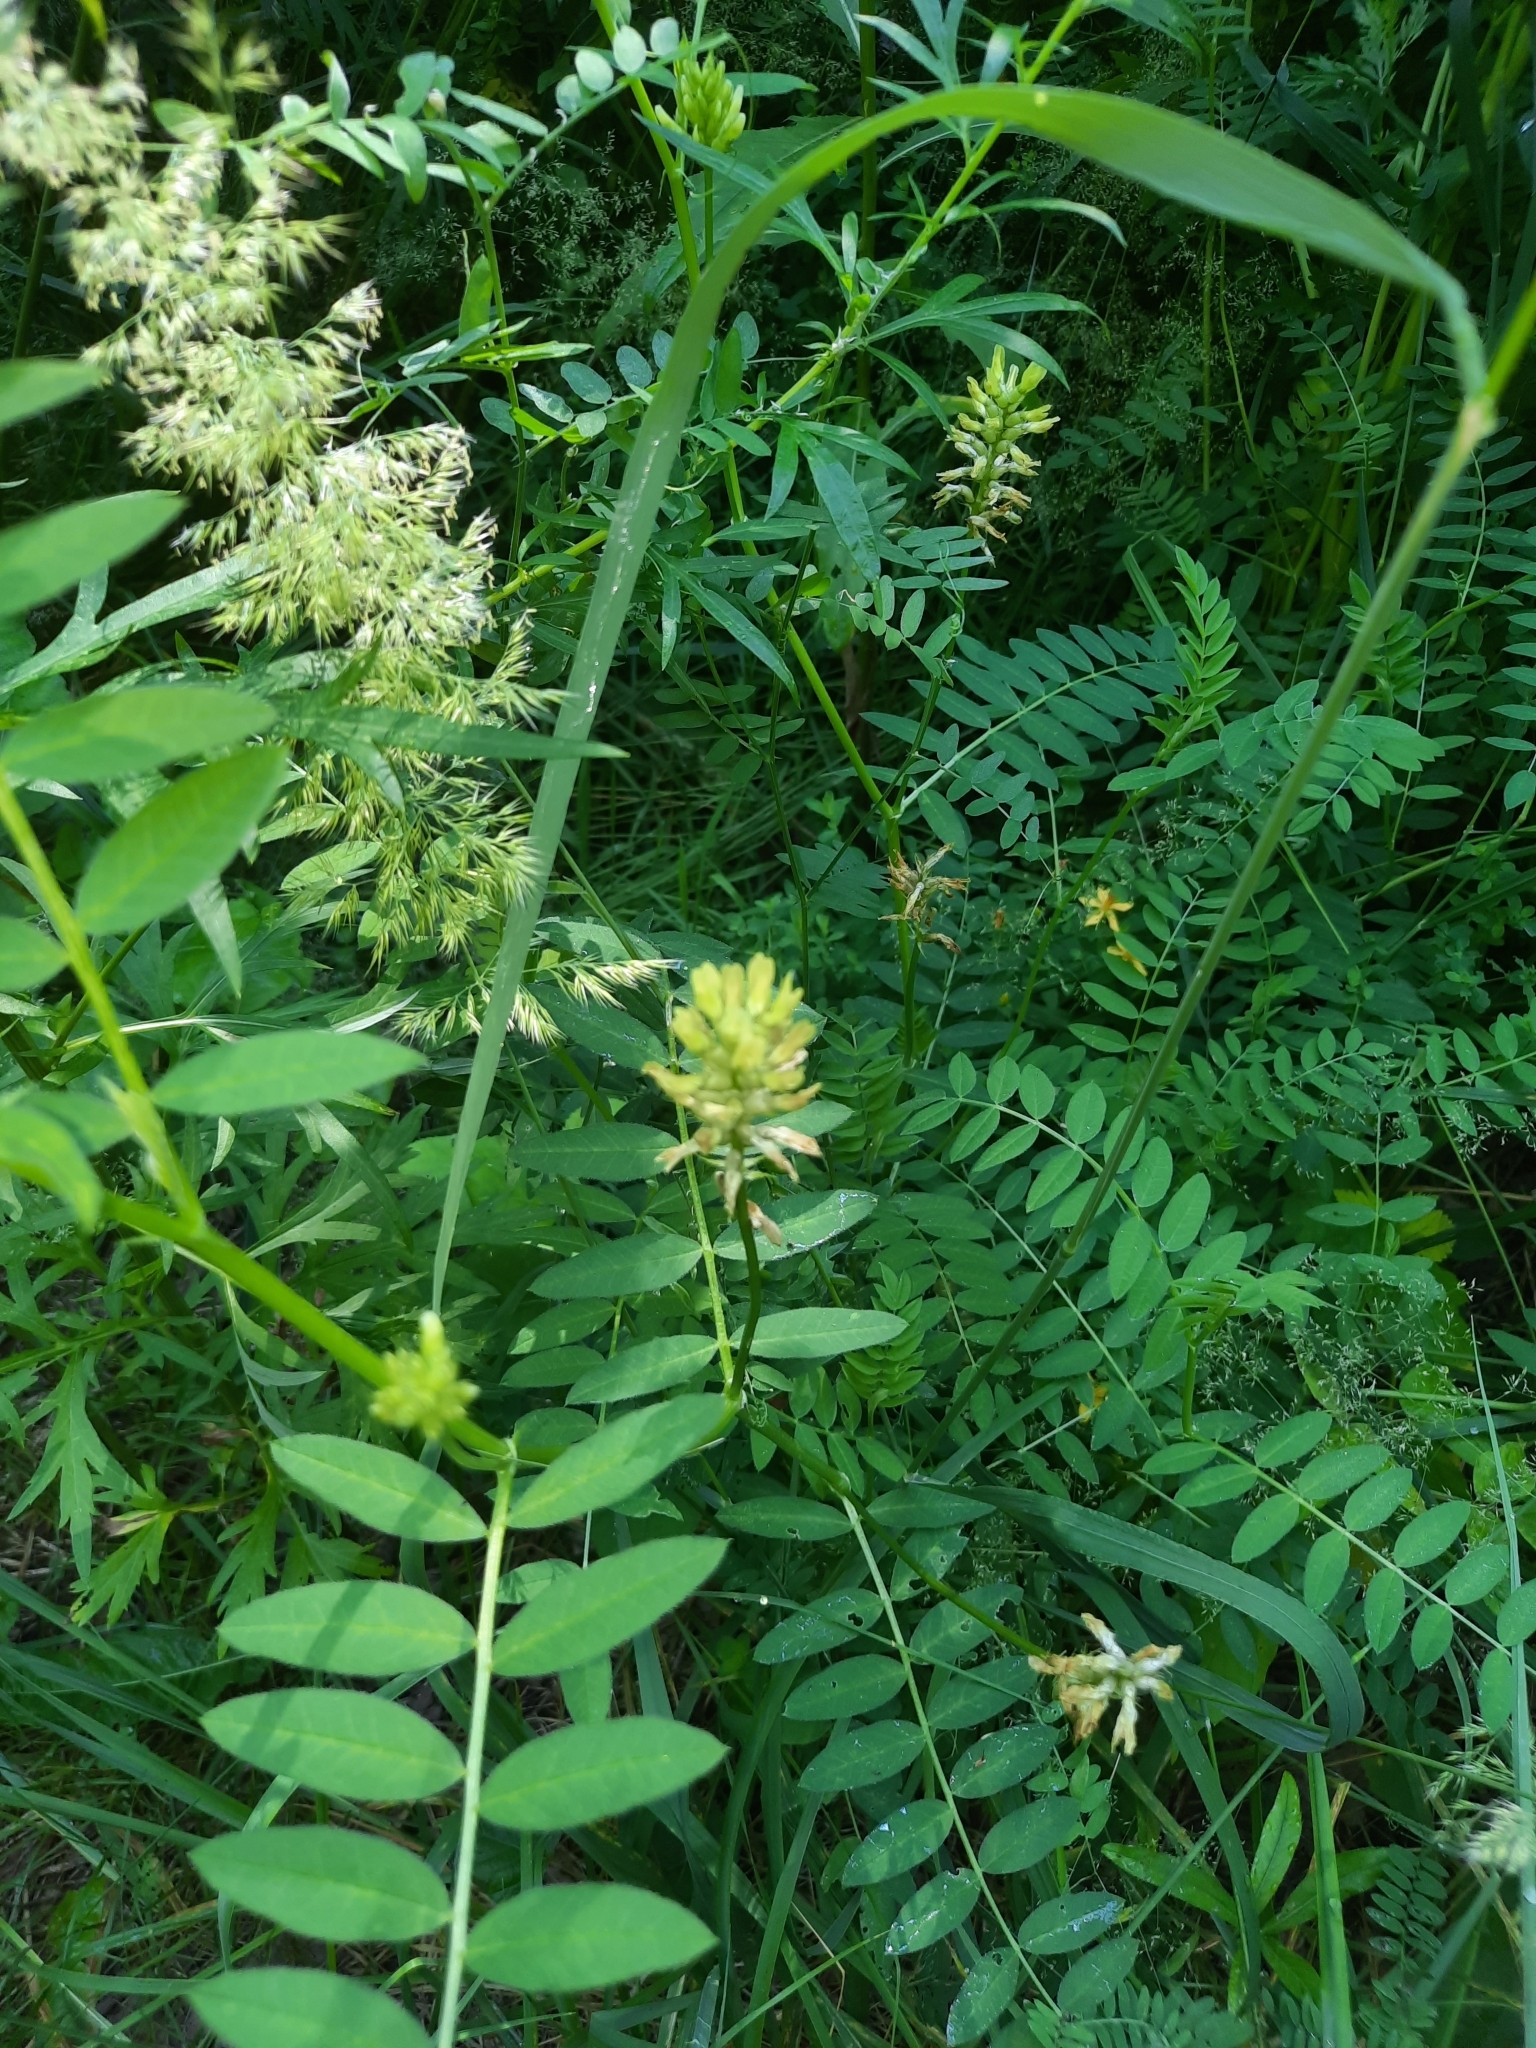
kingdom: Plantae
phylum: Tracheophyta
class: Magnoliopsida
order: Fabales
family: Fabaceae
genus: Astragalus
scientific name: Astragalus cicer
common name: Chick-pea milk-vetch
